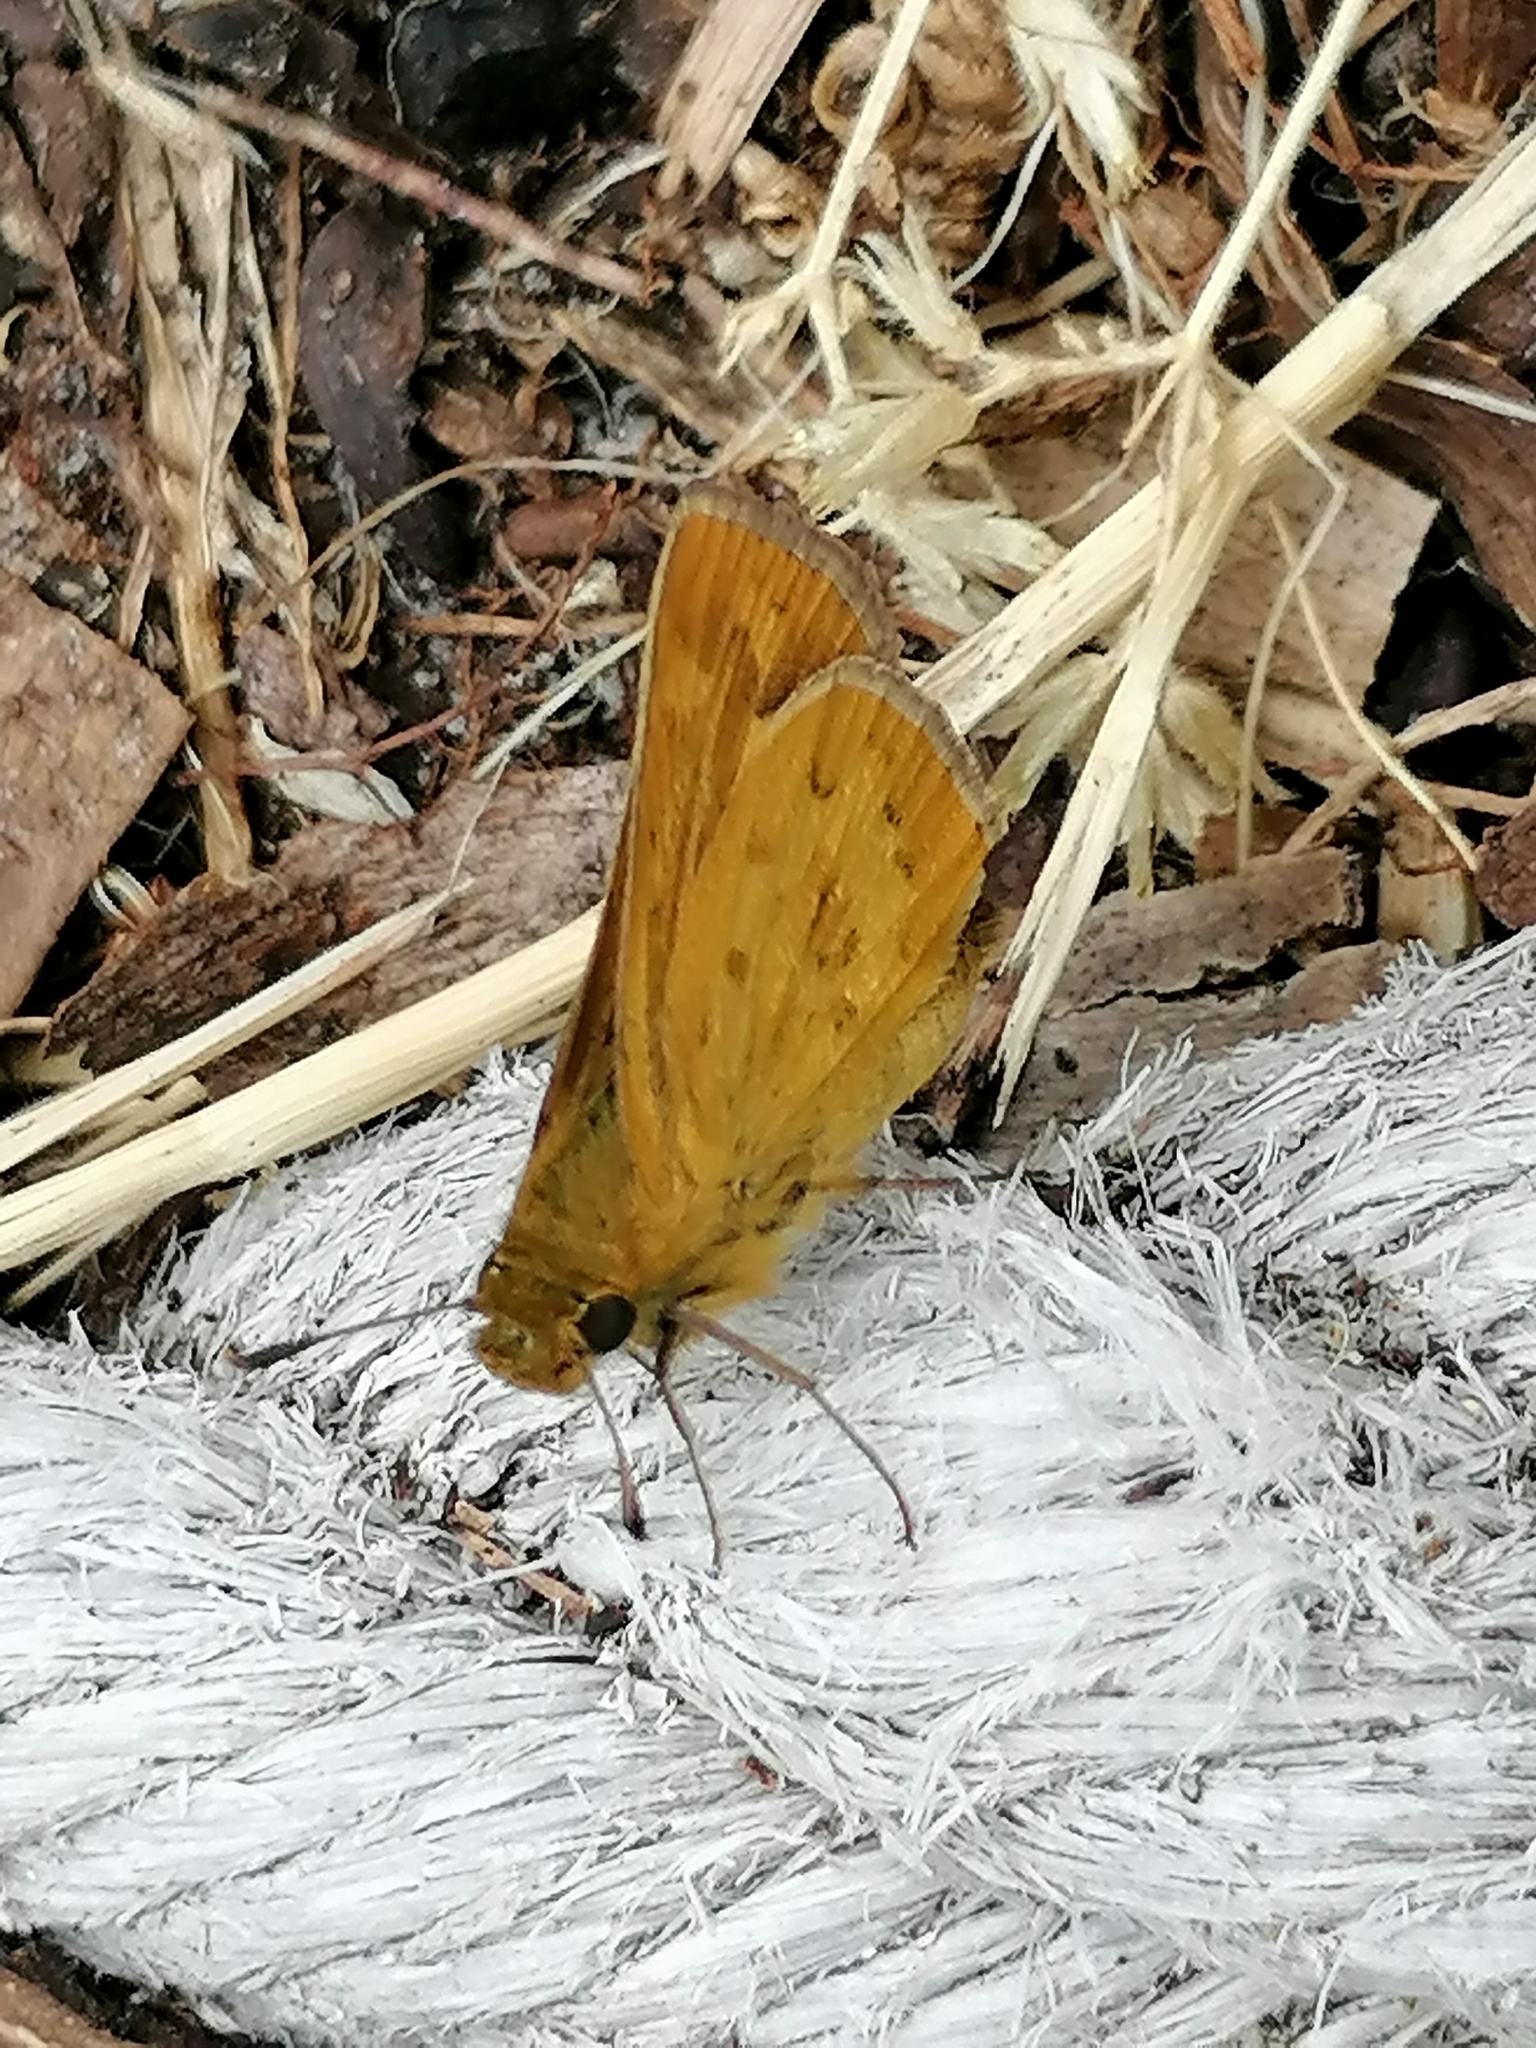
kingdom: Animalia
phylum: Arthropoda
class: Insecta
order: Lepidoptera
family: Hesperiidae
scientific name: Hesperiidae
